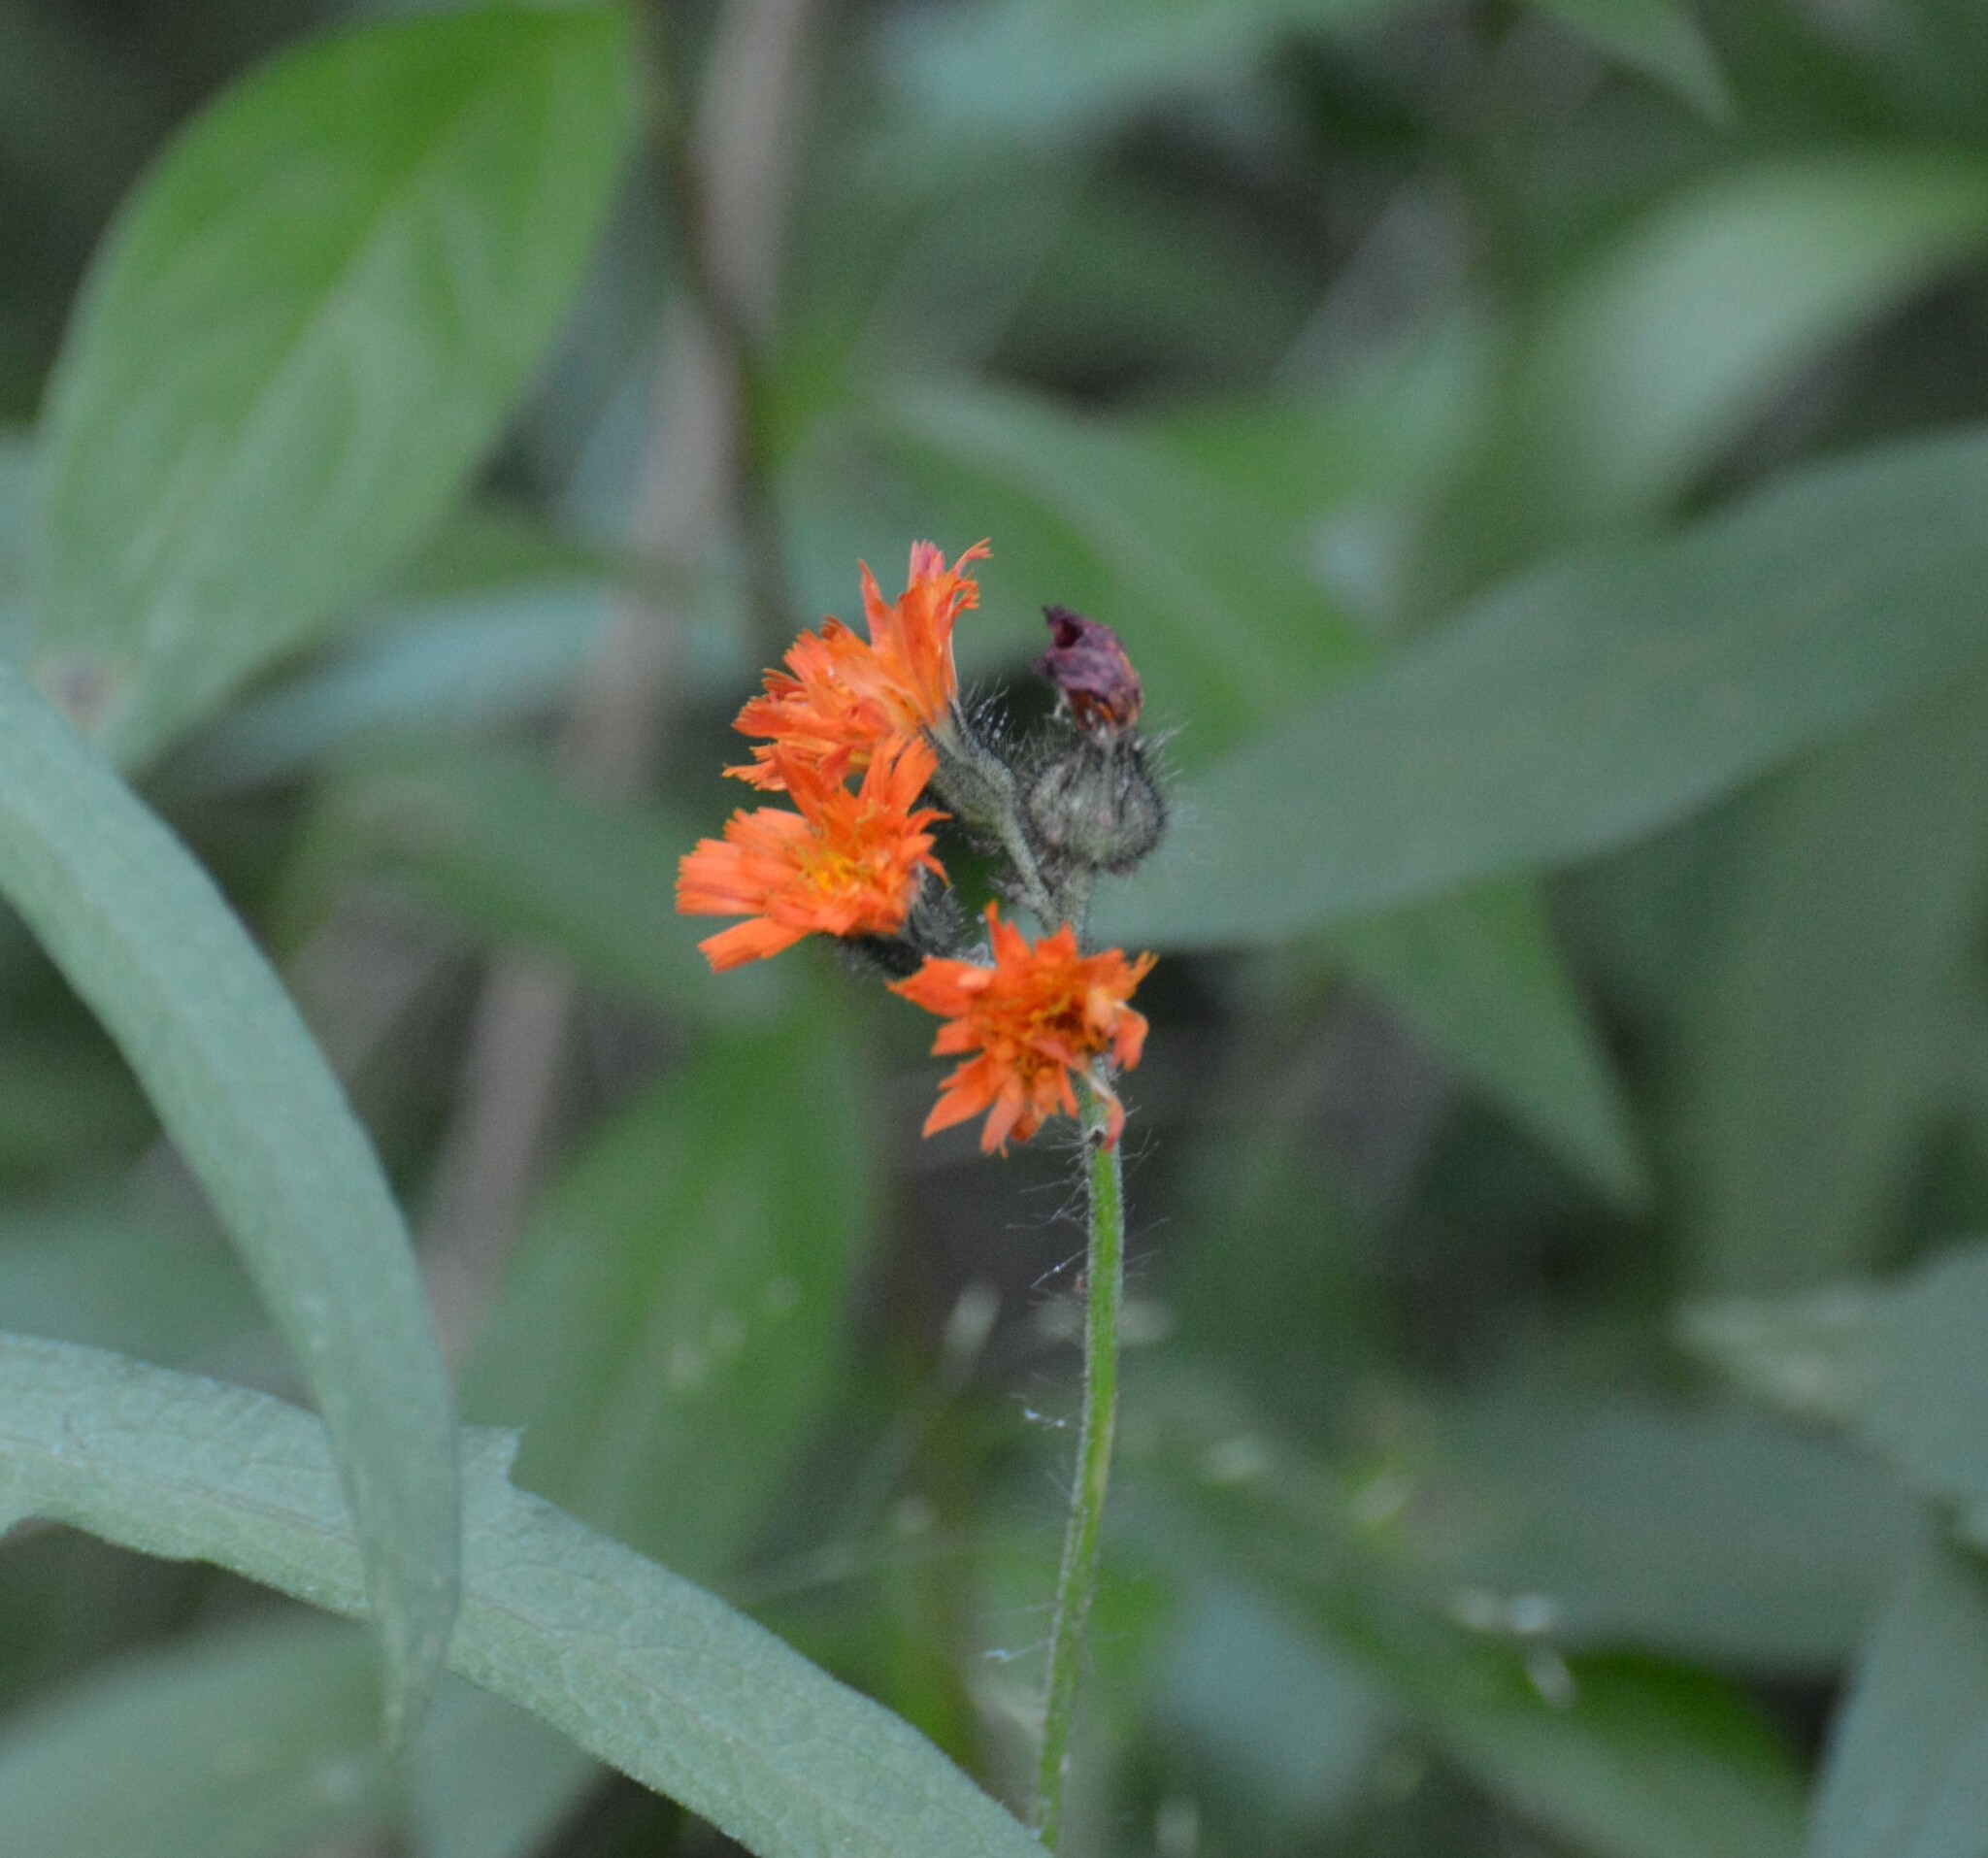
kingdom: Plantae
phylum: Tracheophyta
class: Magnoliopsida
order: Asterales
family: Asteraceae
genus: Pilosella
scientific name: Pilosella aurantiaca
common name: Fox-and-cubs
